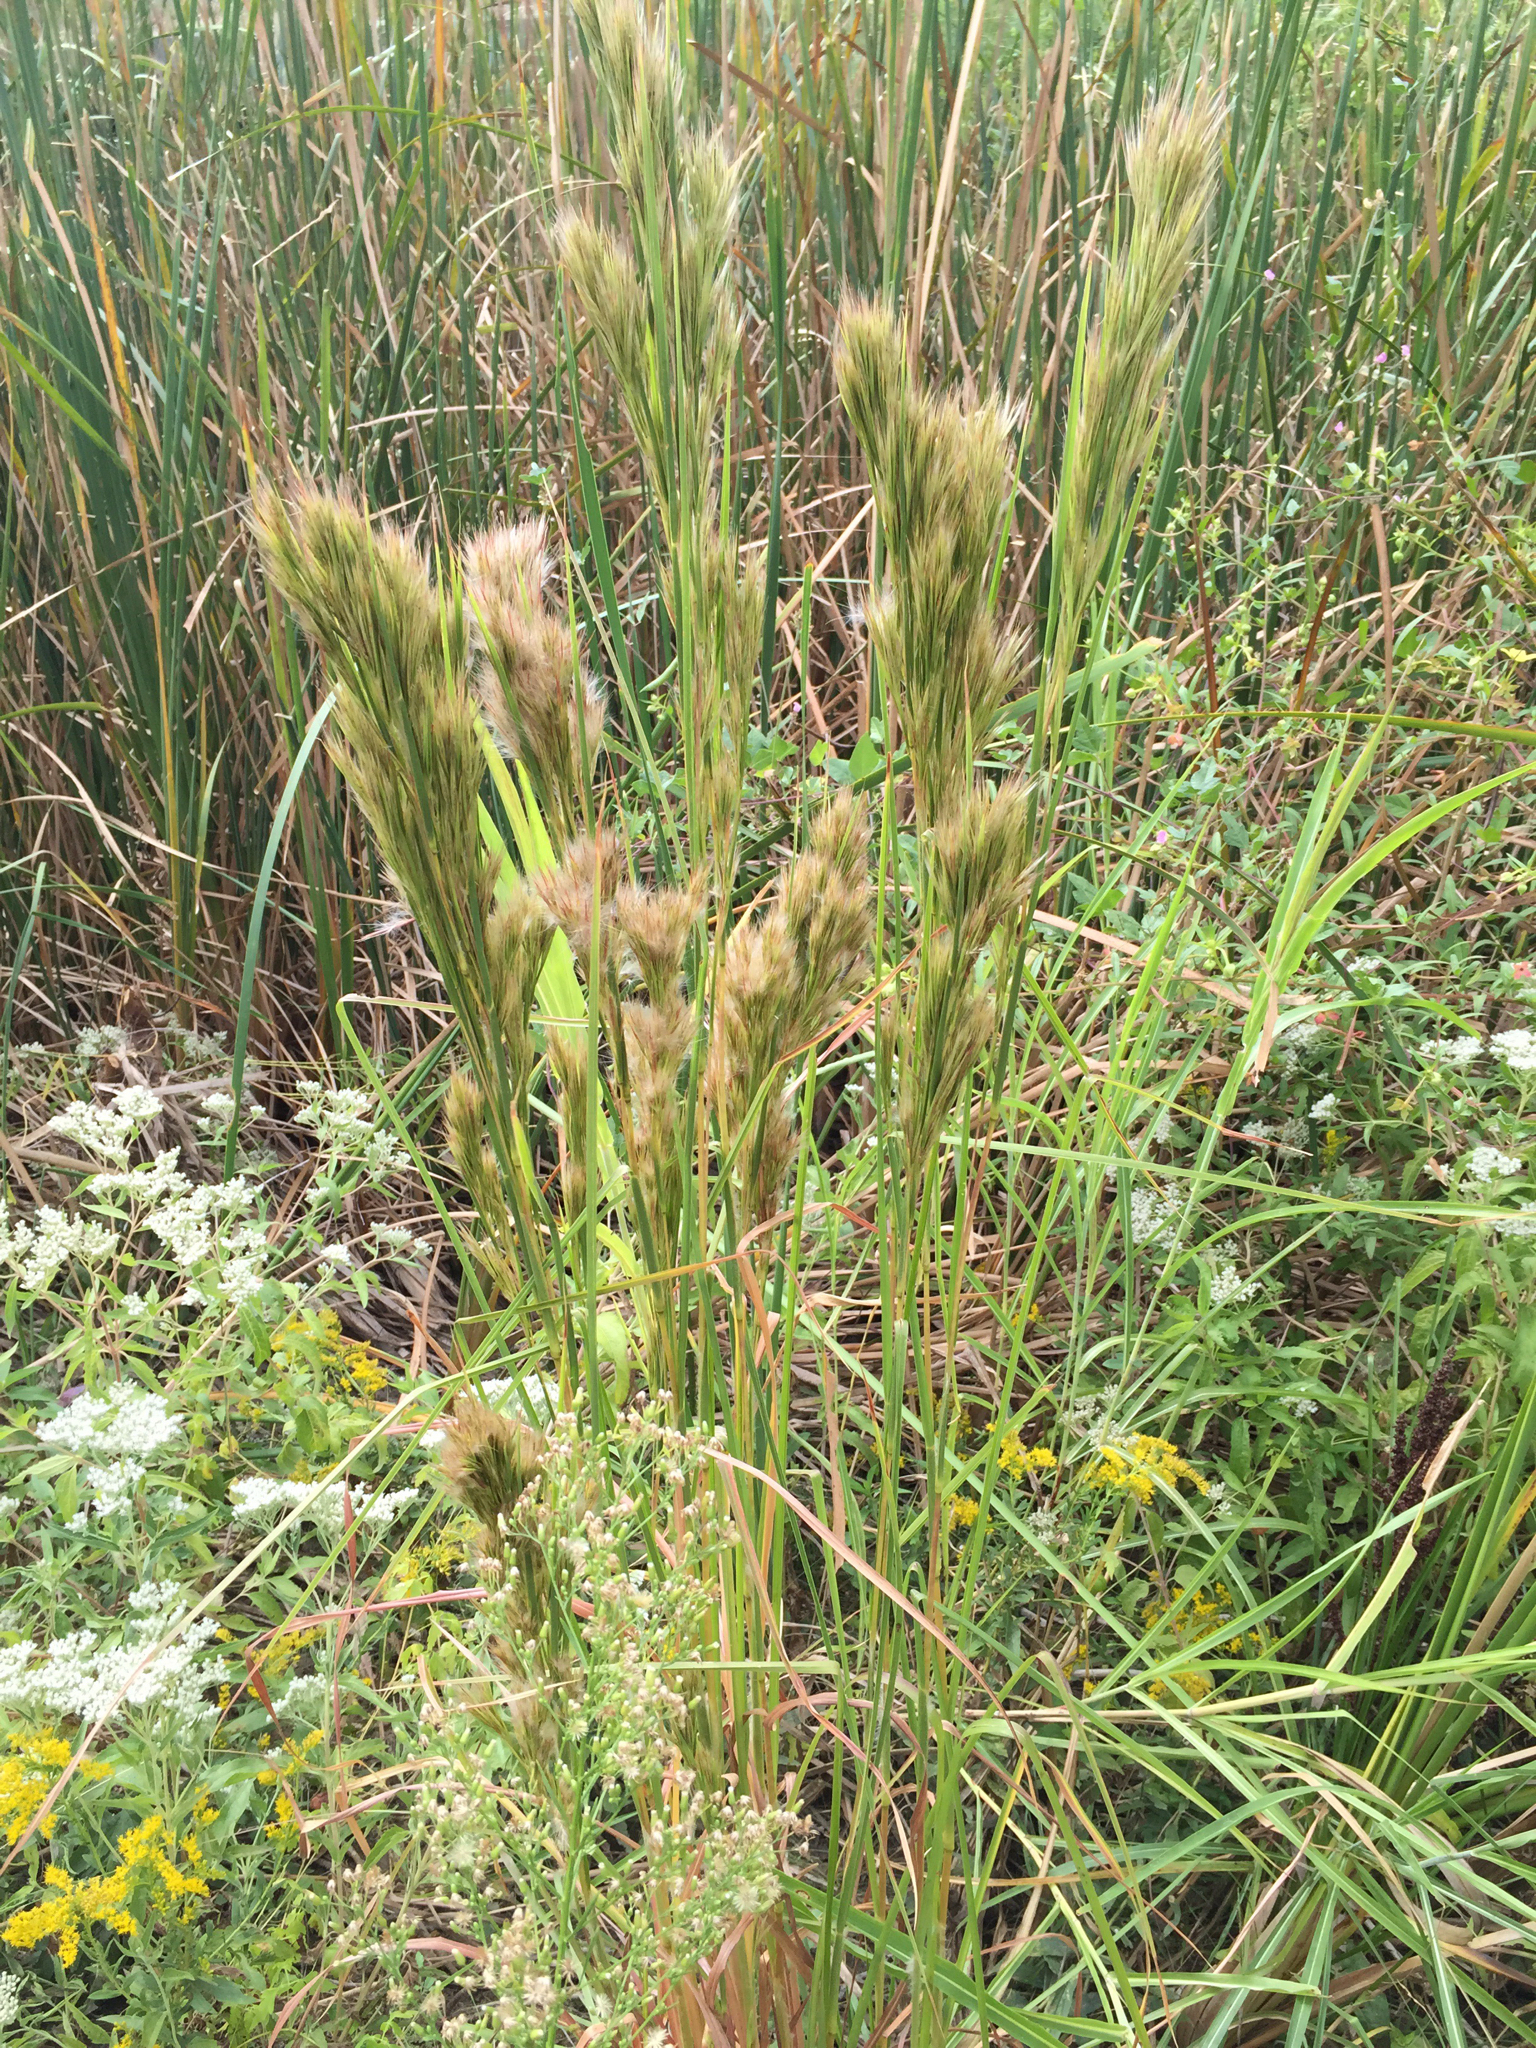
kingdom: Plantae
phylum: Tracheophyta
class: Liliopsida
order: Poales
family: Poaceae
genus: Andropogon
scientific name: Andropogon tenuispatheus
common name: Bushy bluestem
